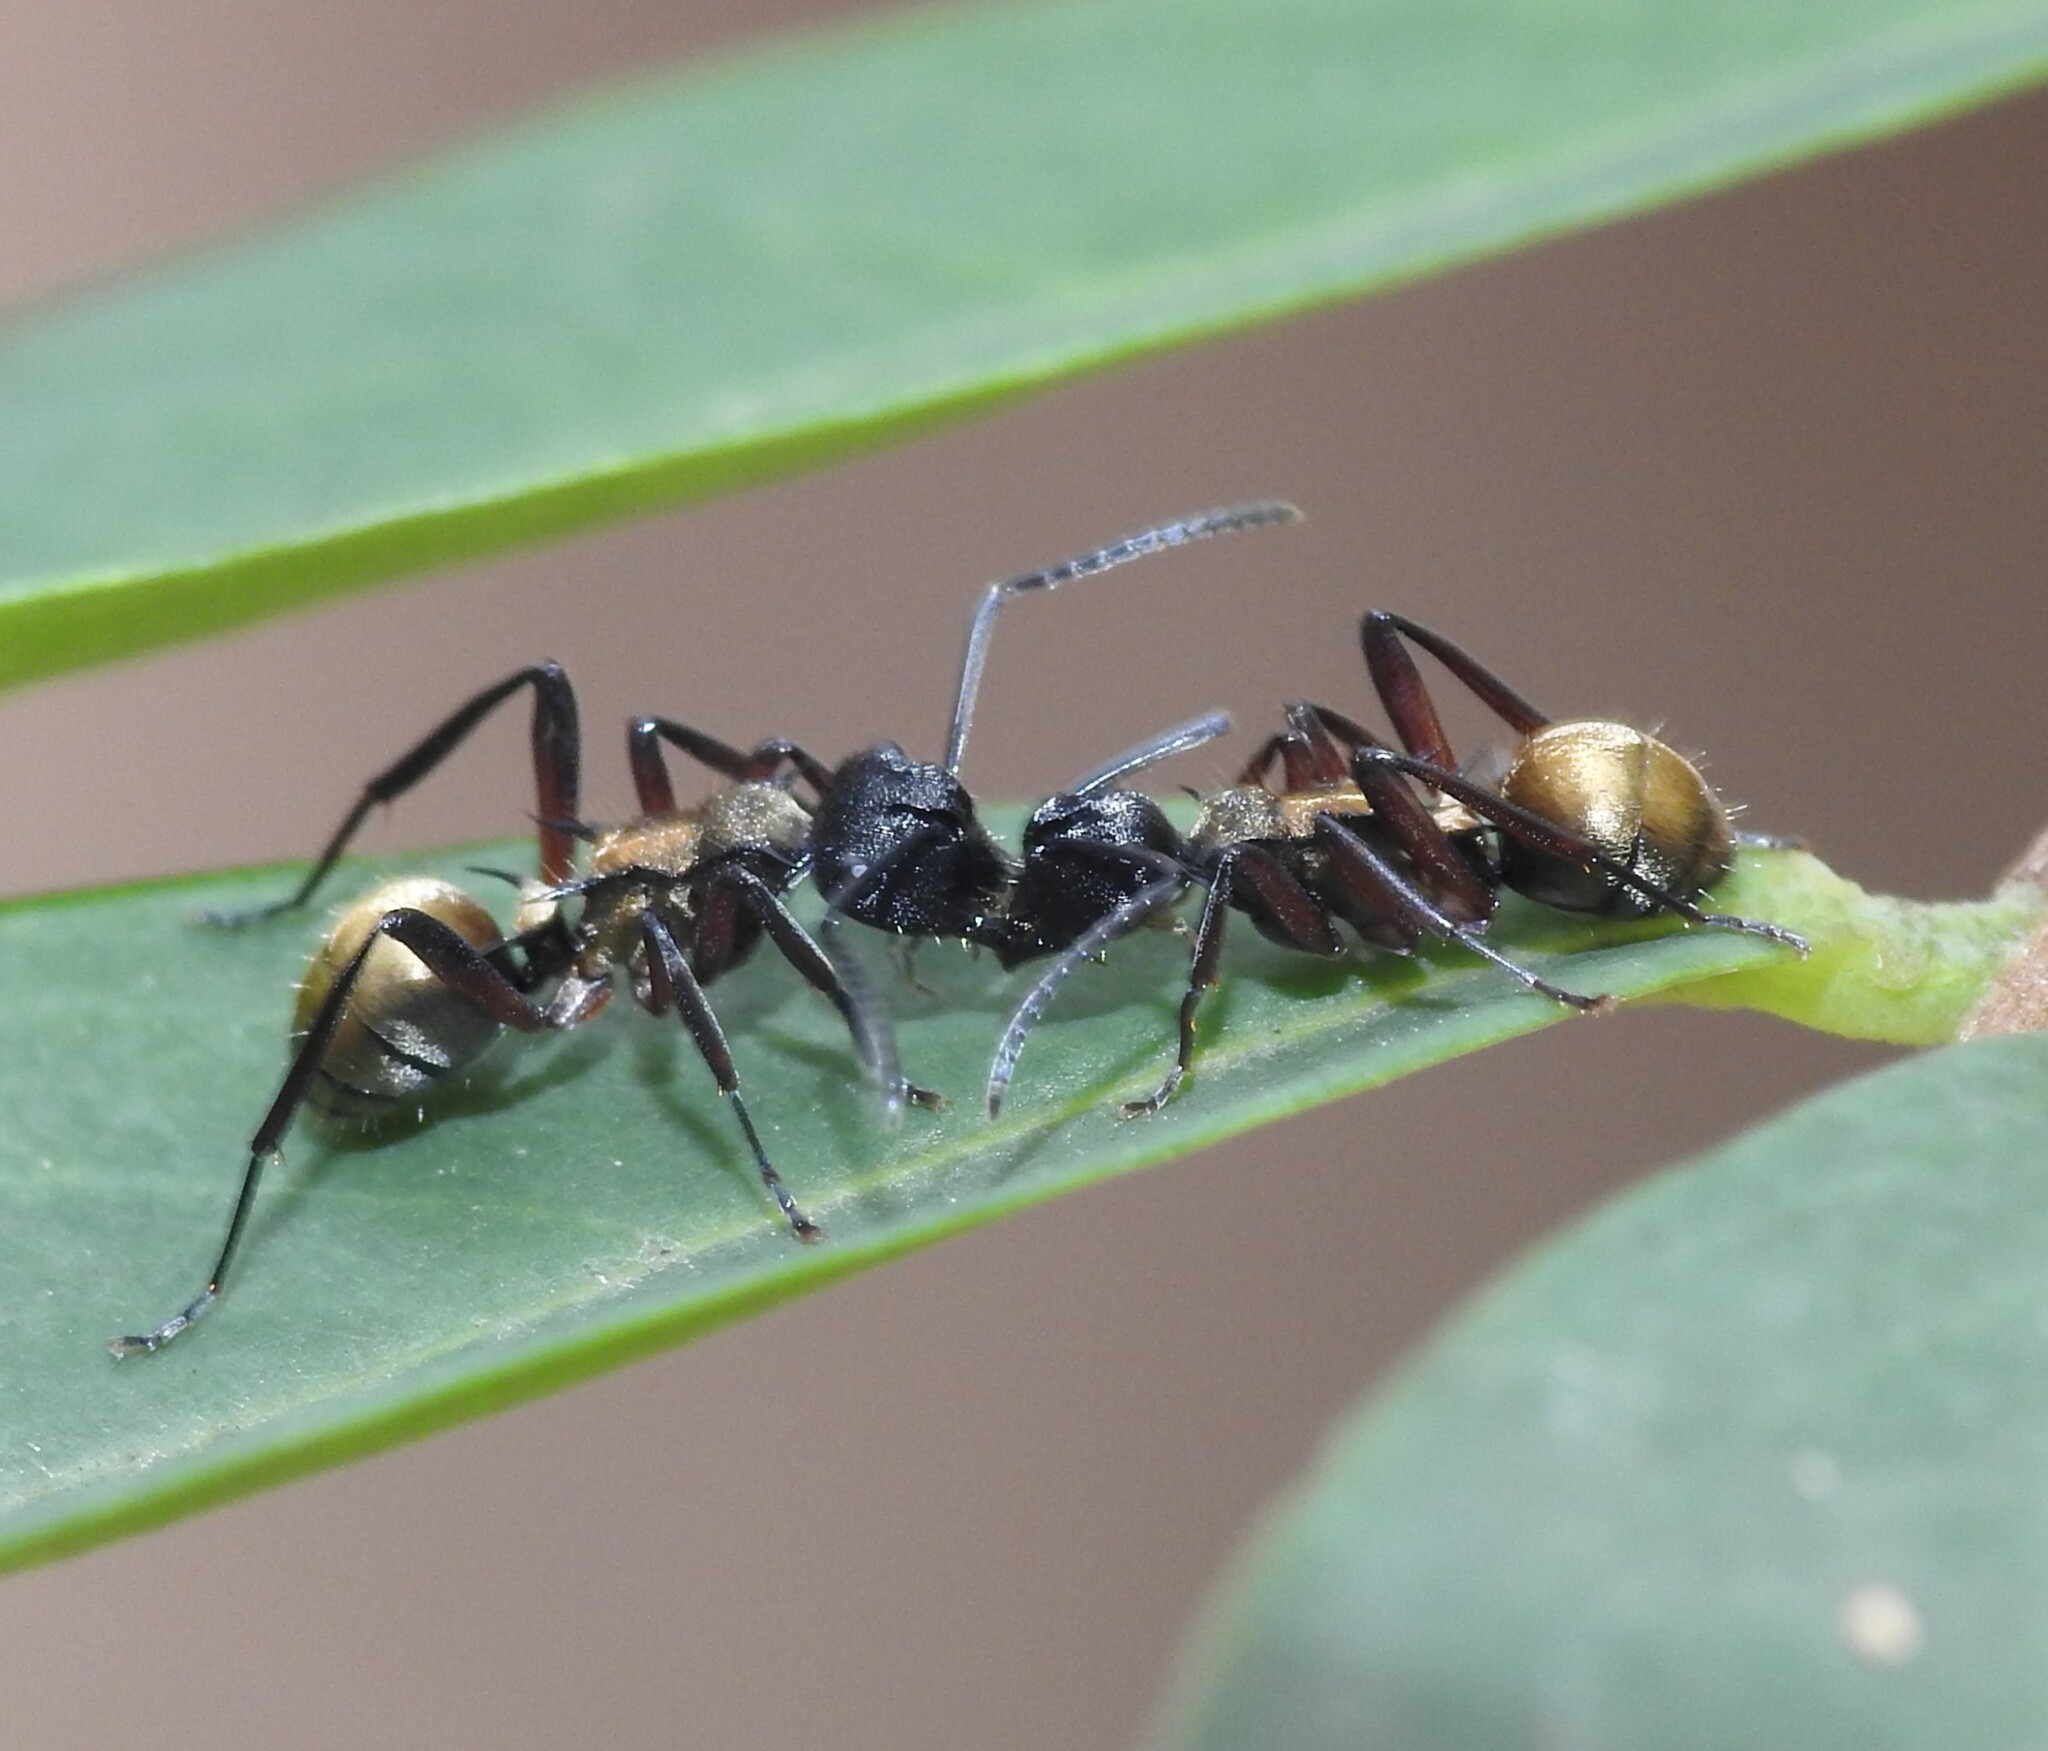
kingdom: Animalia
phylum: Arthropoda
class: Insecta
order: Hymenoptera
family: Formicidae
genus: Polyrhachis
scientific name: Polyrhachis rufifemur
